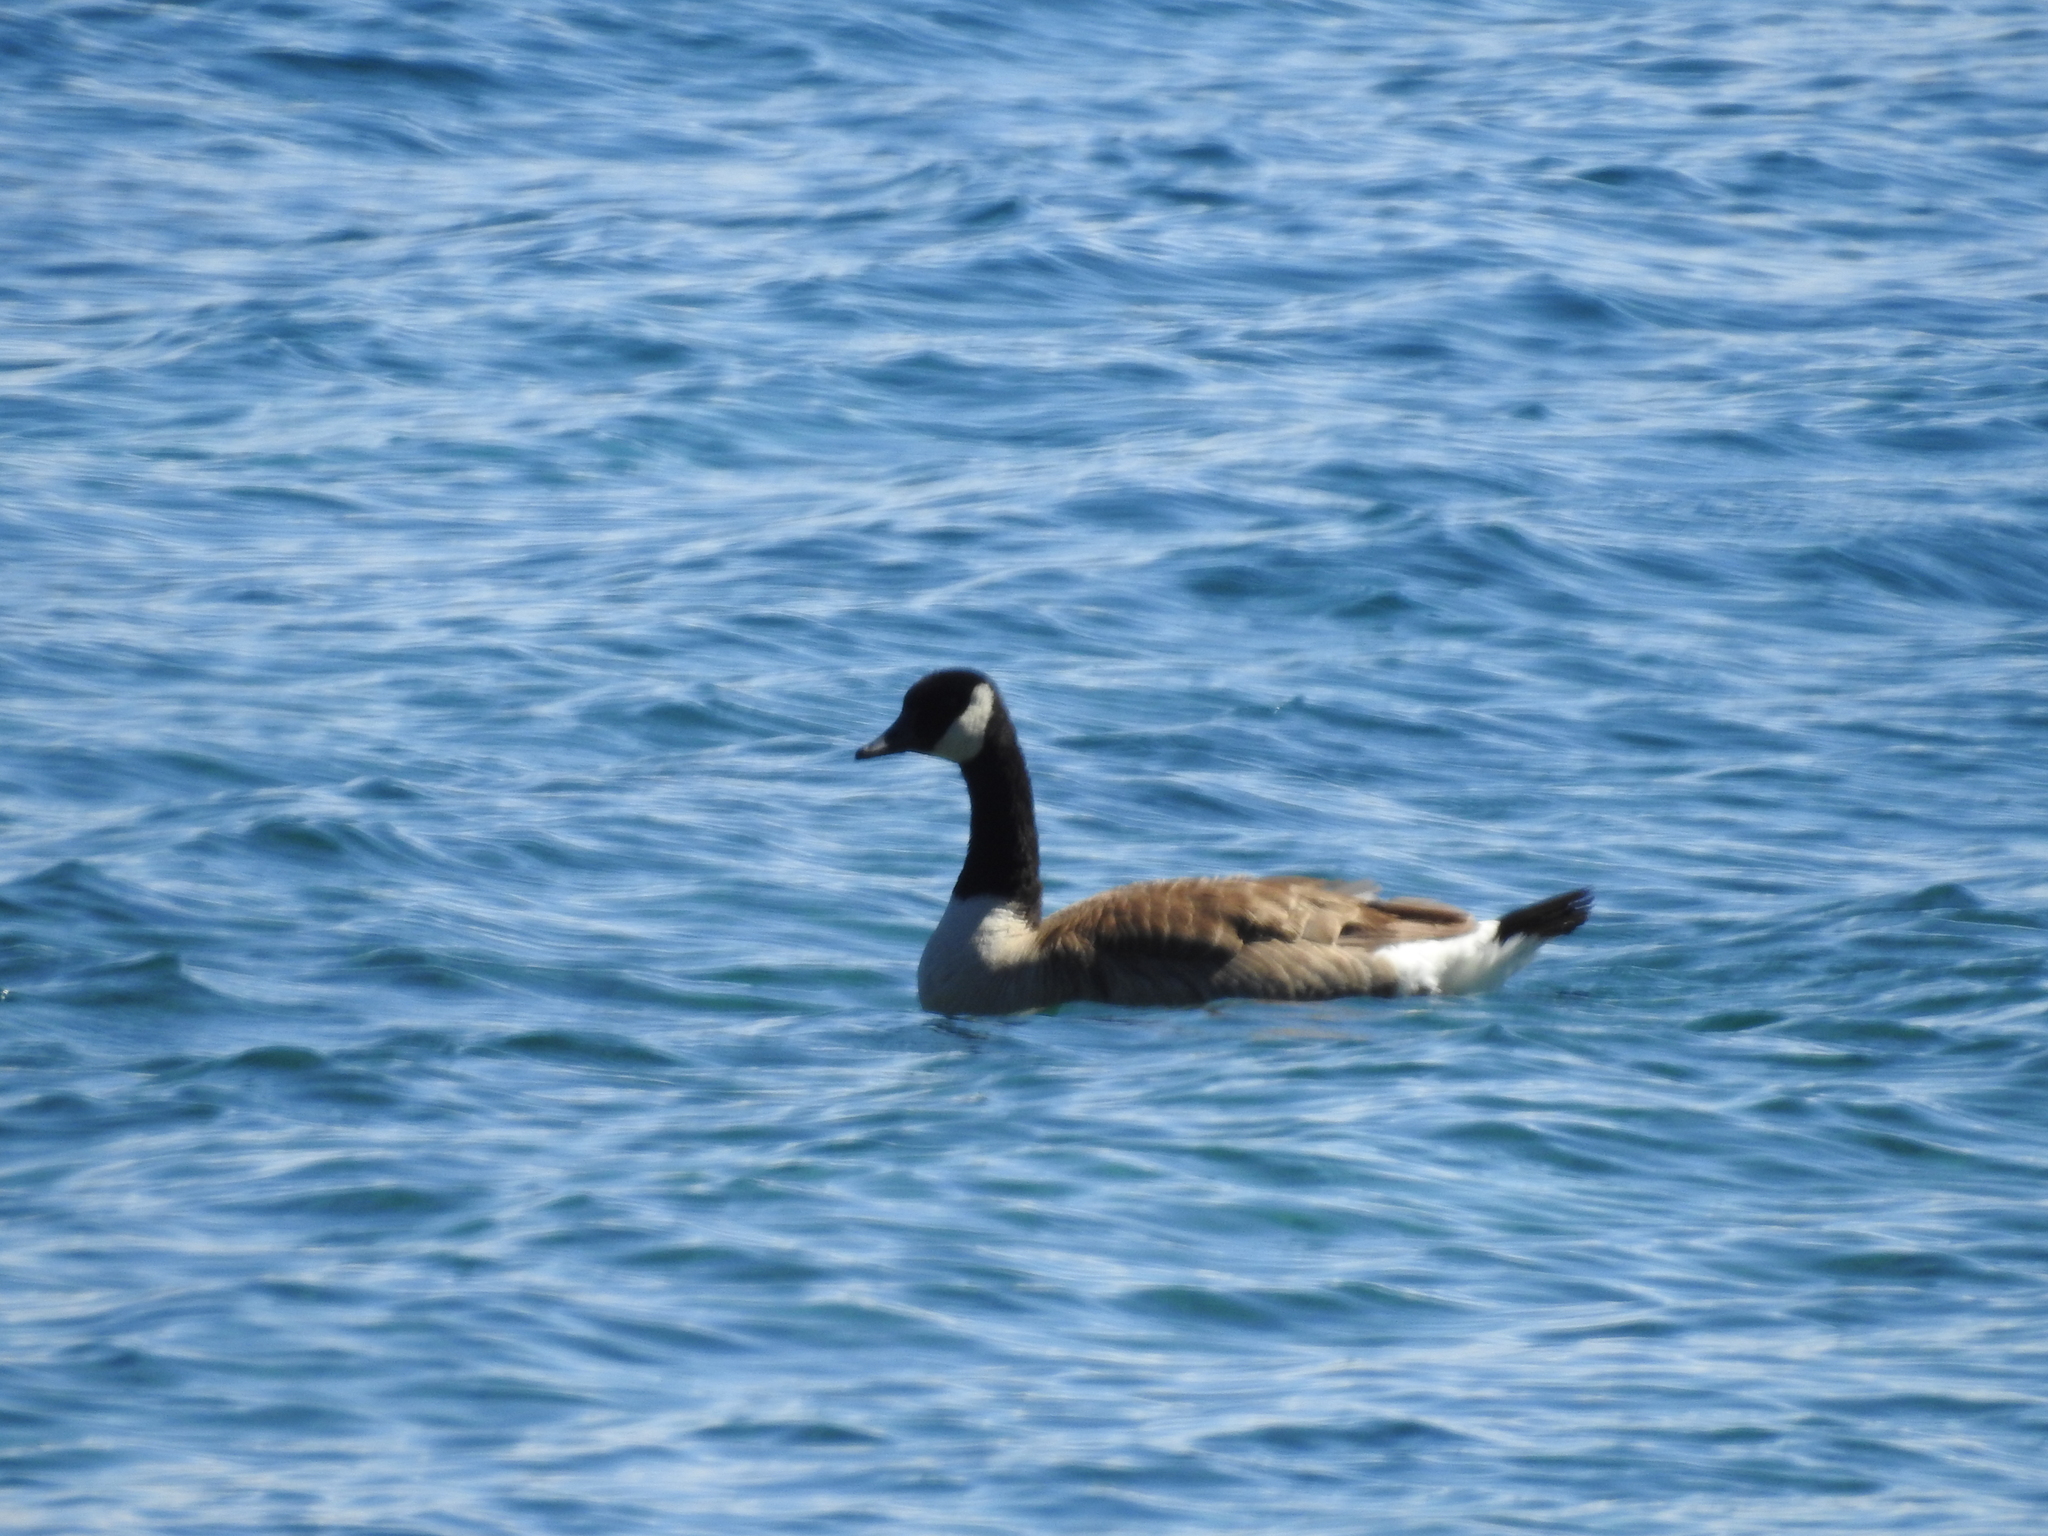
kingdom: Animalia
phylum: Chordata
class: Aves
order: Anseriformes
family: Anatidae
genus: Branta
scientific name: Branta canadensis
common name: Canada goose
